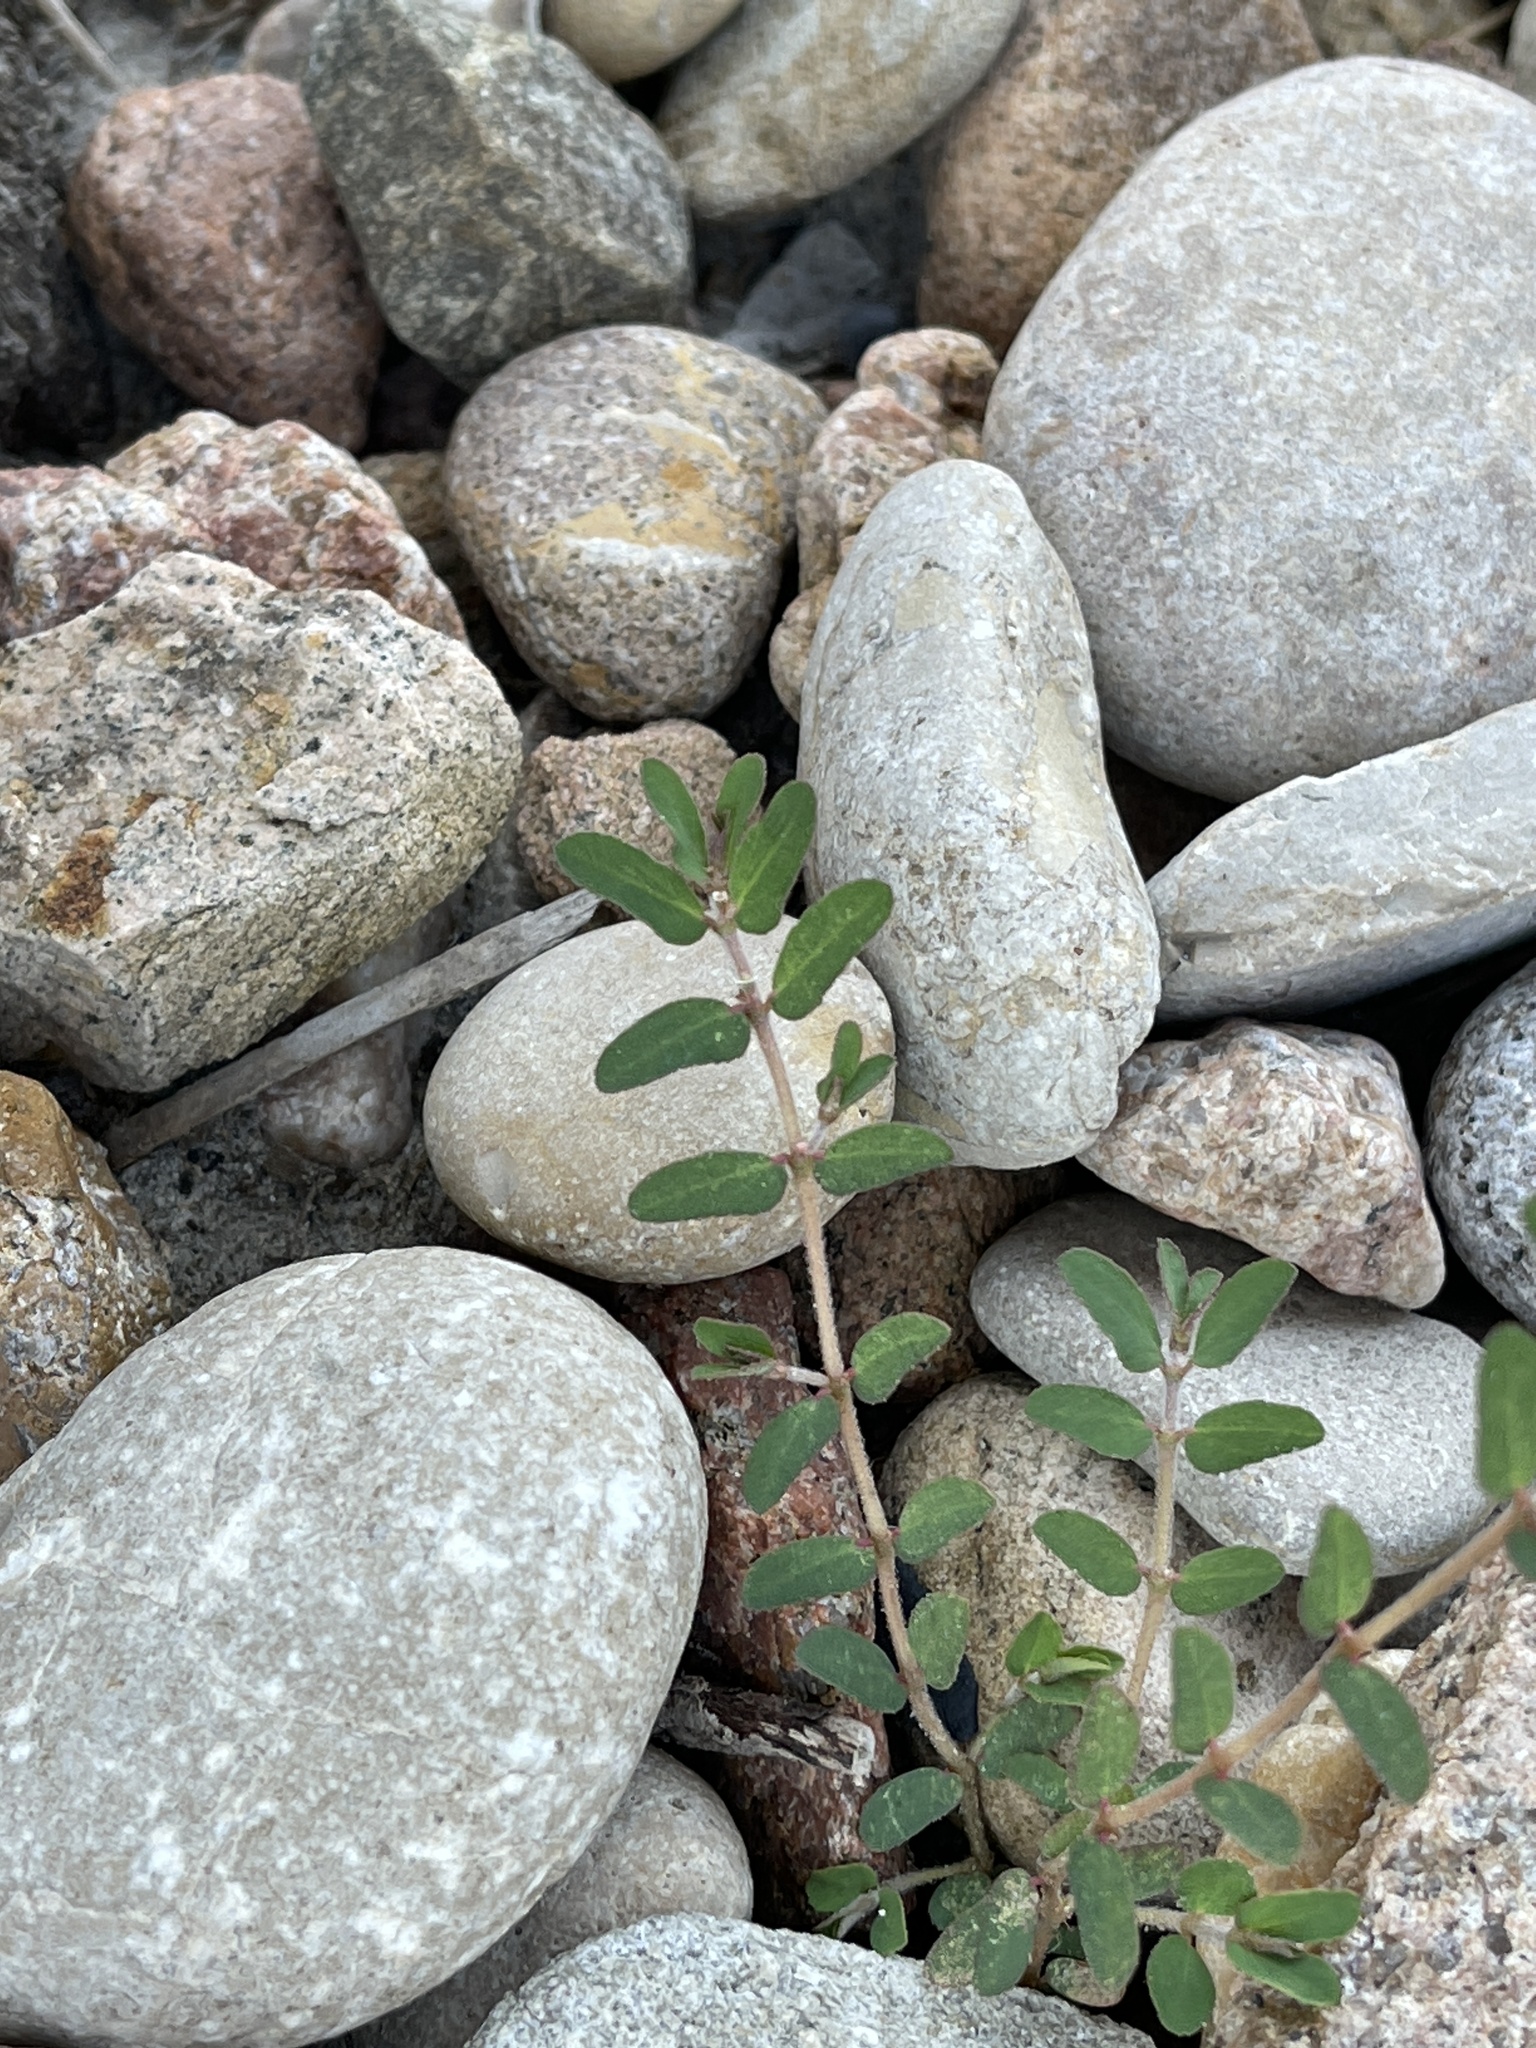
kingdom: Plantae
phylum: Tracheophyta
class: Magnoliopsida
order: Malpighiales
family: Euphorbiaceae
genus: Euphorbia
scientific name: Euphorbia maculata
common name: Spotted spurge
